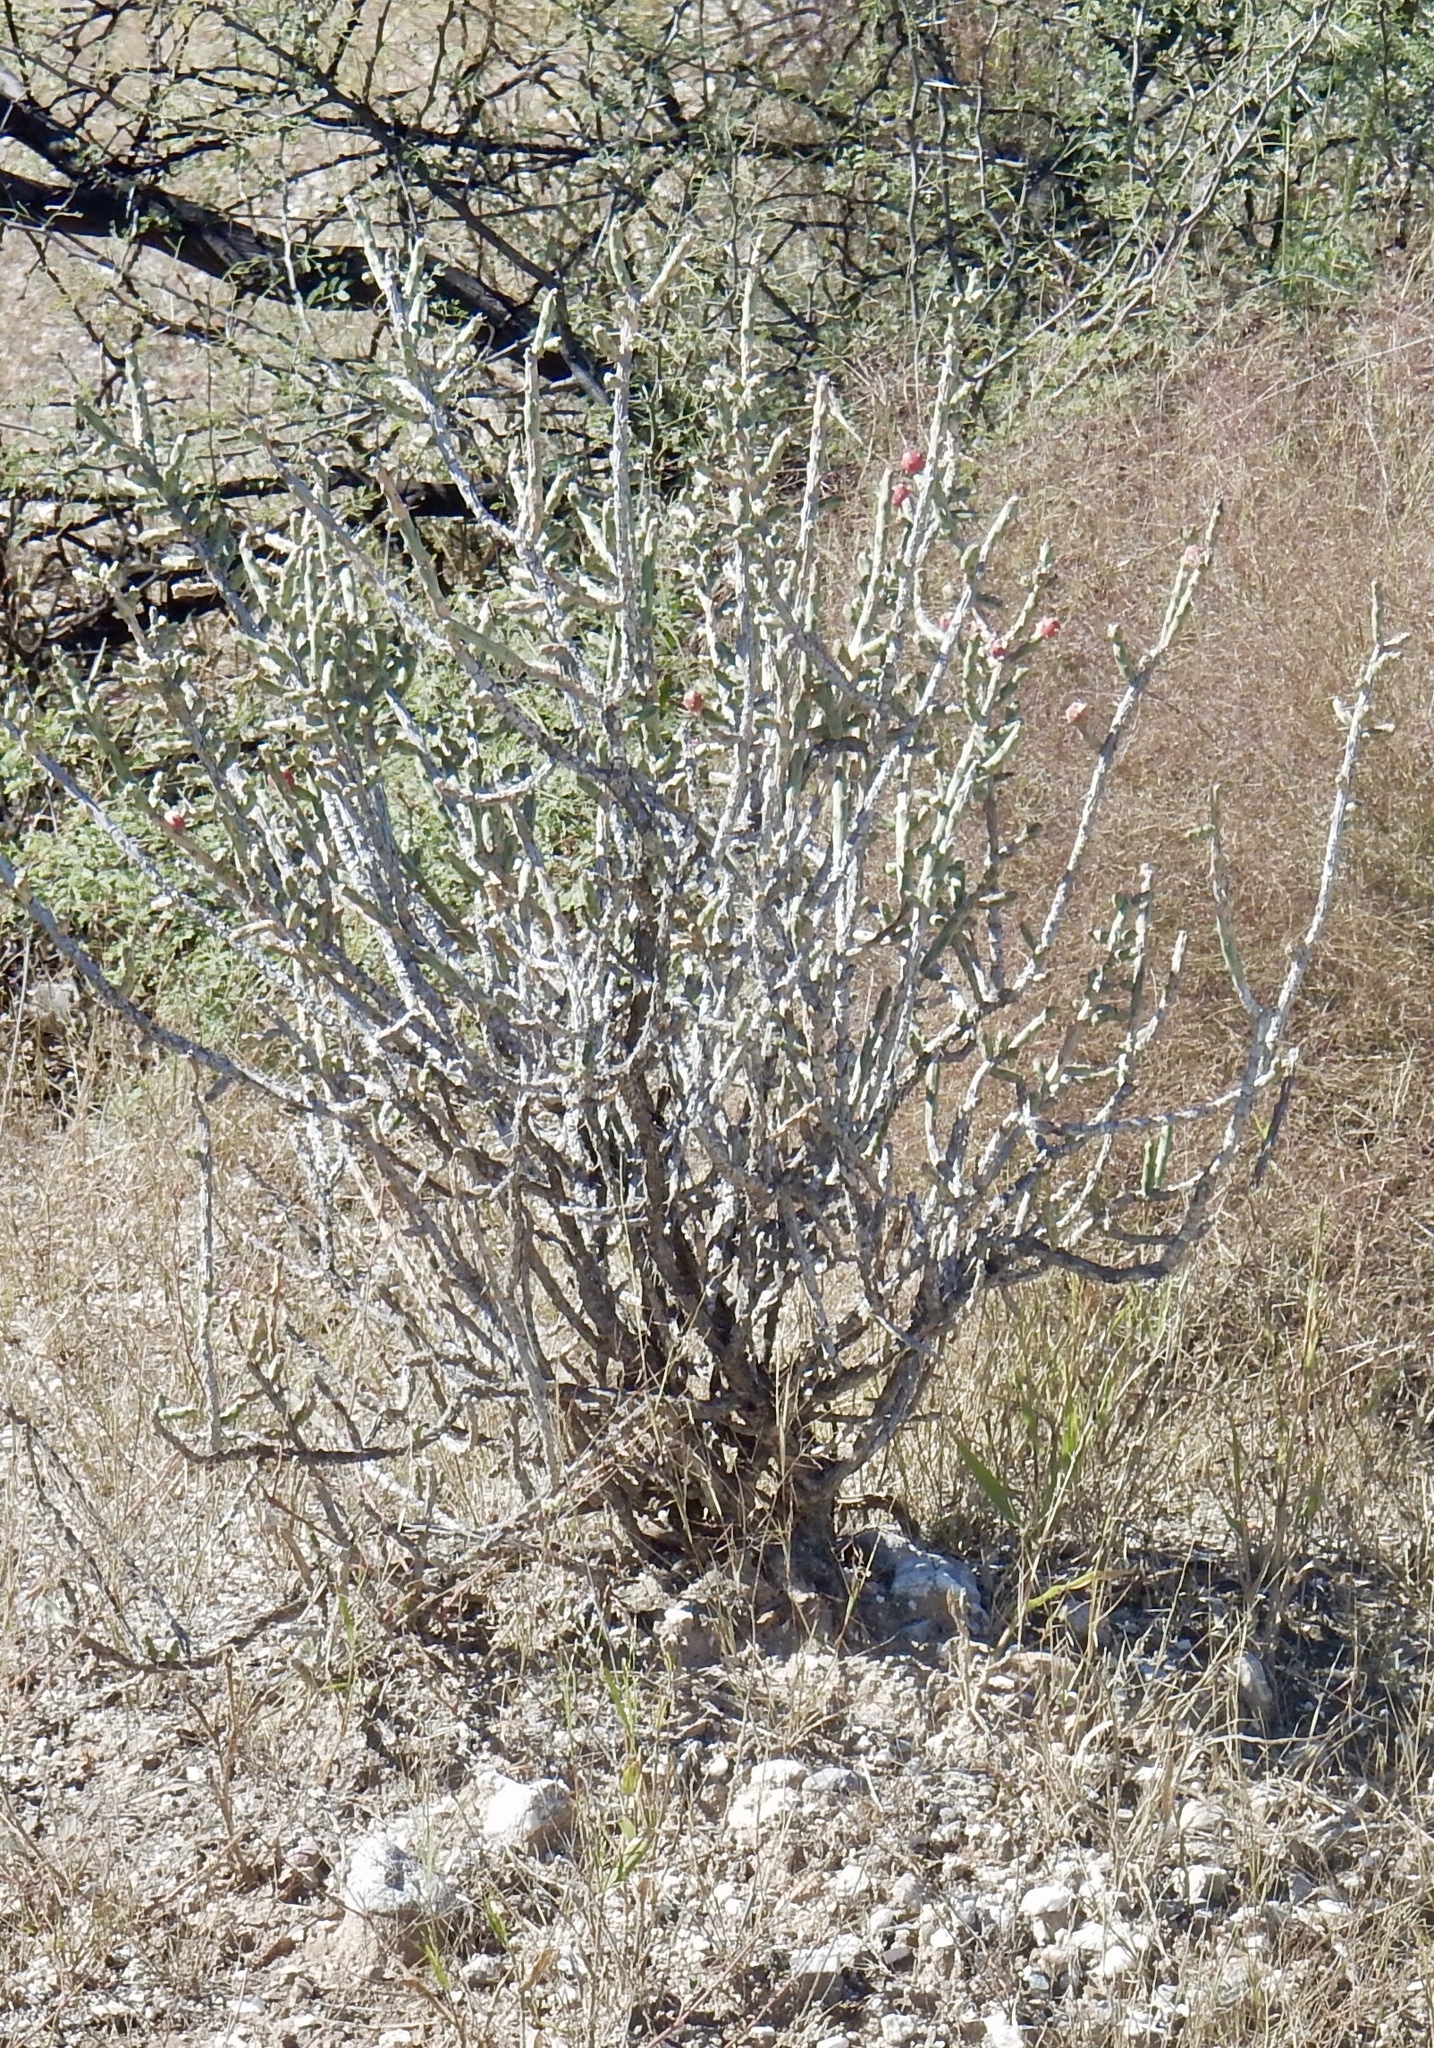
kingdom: Plantae
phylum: Tracheophyta
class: Magnoliopsida
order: Caryophyllales
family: Cactaceae
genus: Cylindropuntia
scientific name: Cylindropuntia leptocaulis
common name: Christmas cactus
